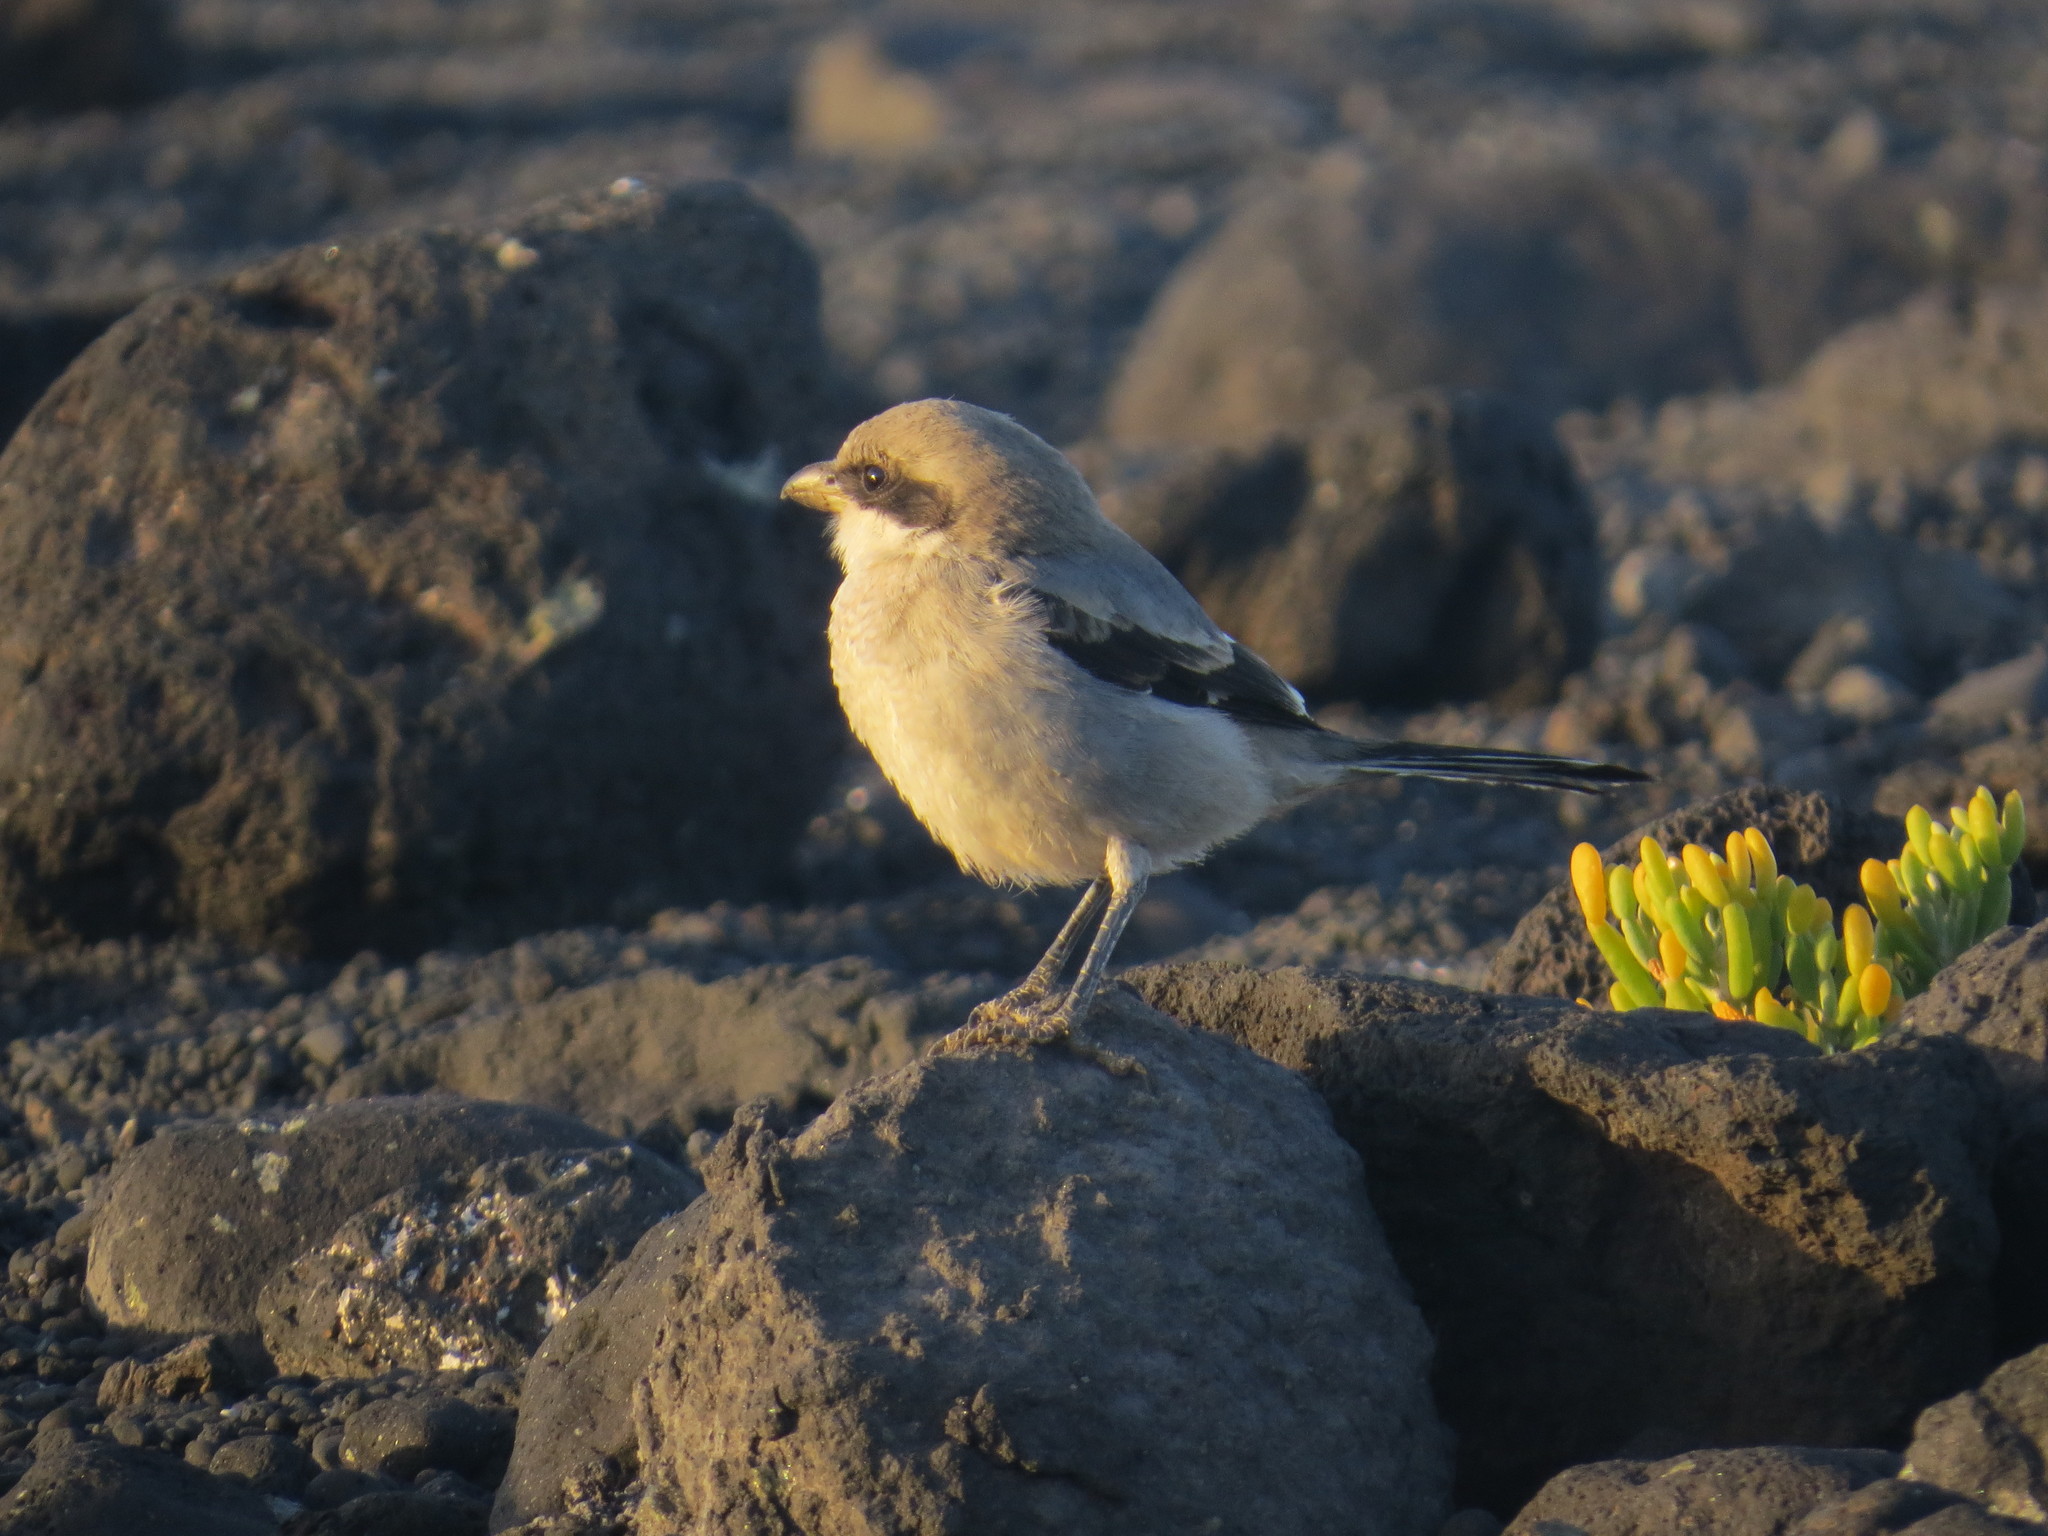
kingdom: Animalia
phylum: Chordata
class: Aves
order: Passeriformes
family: Laniidae
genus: Lanius
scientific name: Lanius excubitor
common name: Great grey shrike
